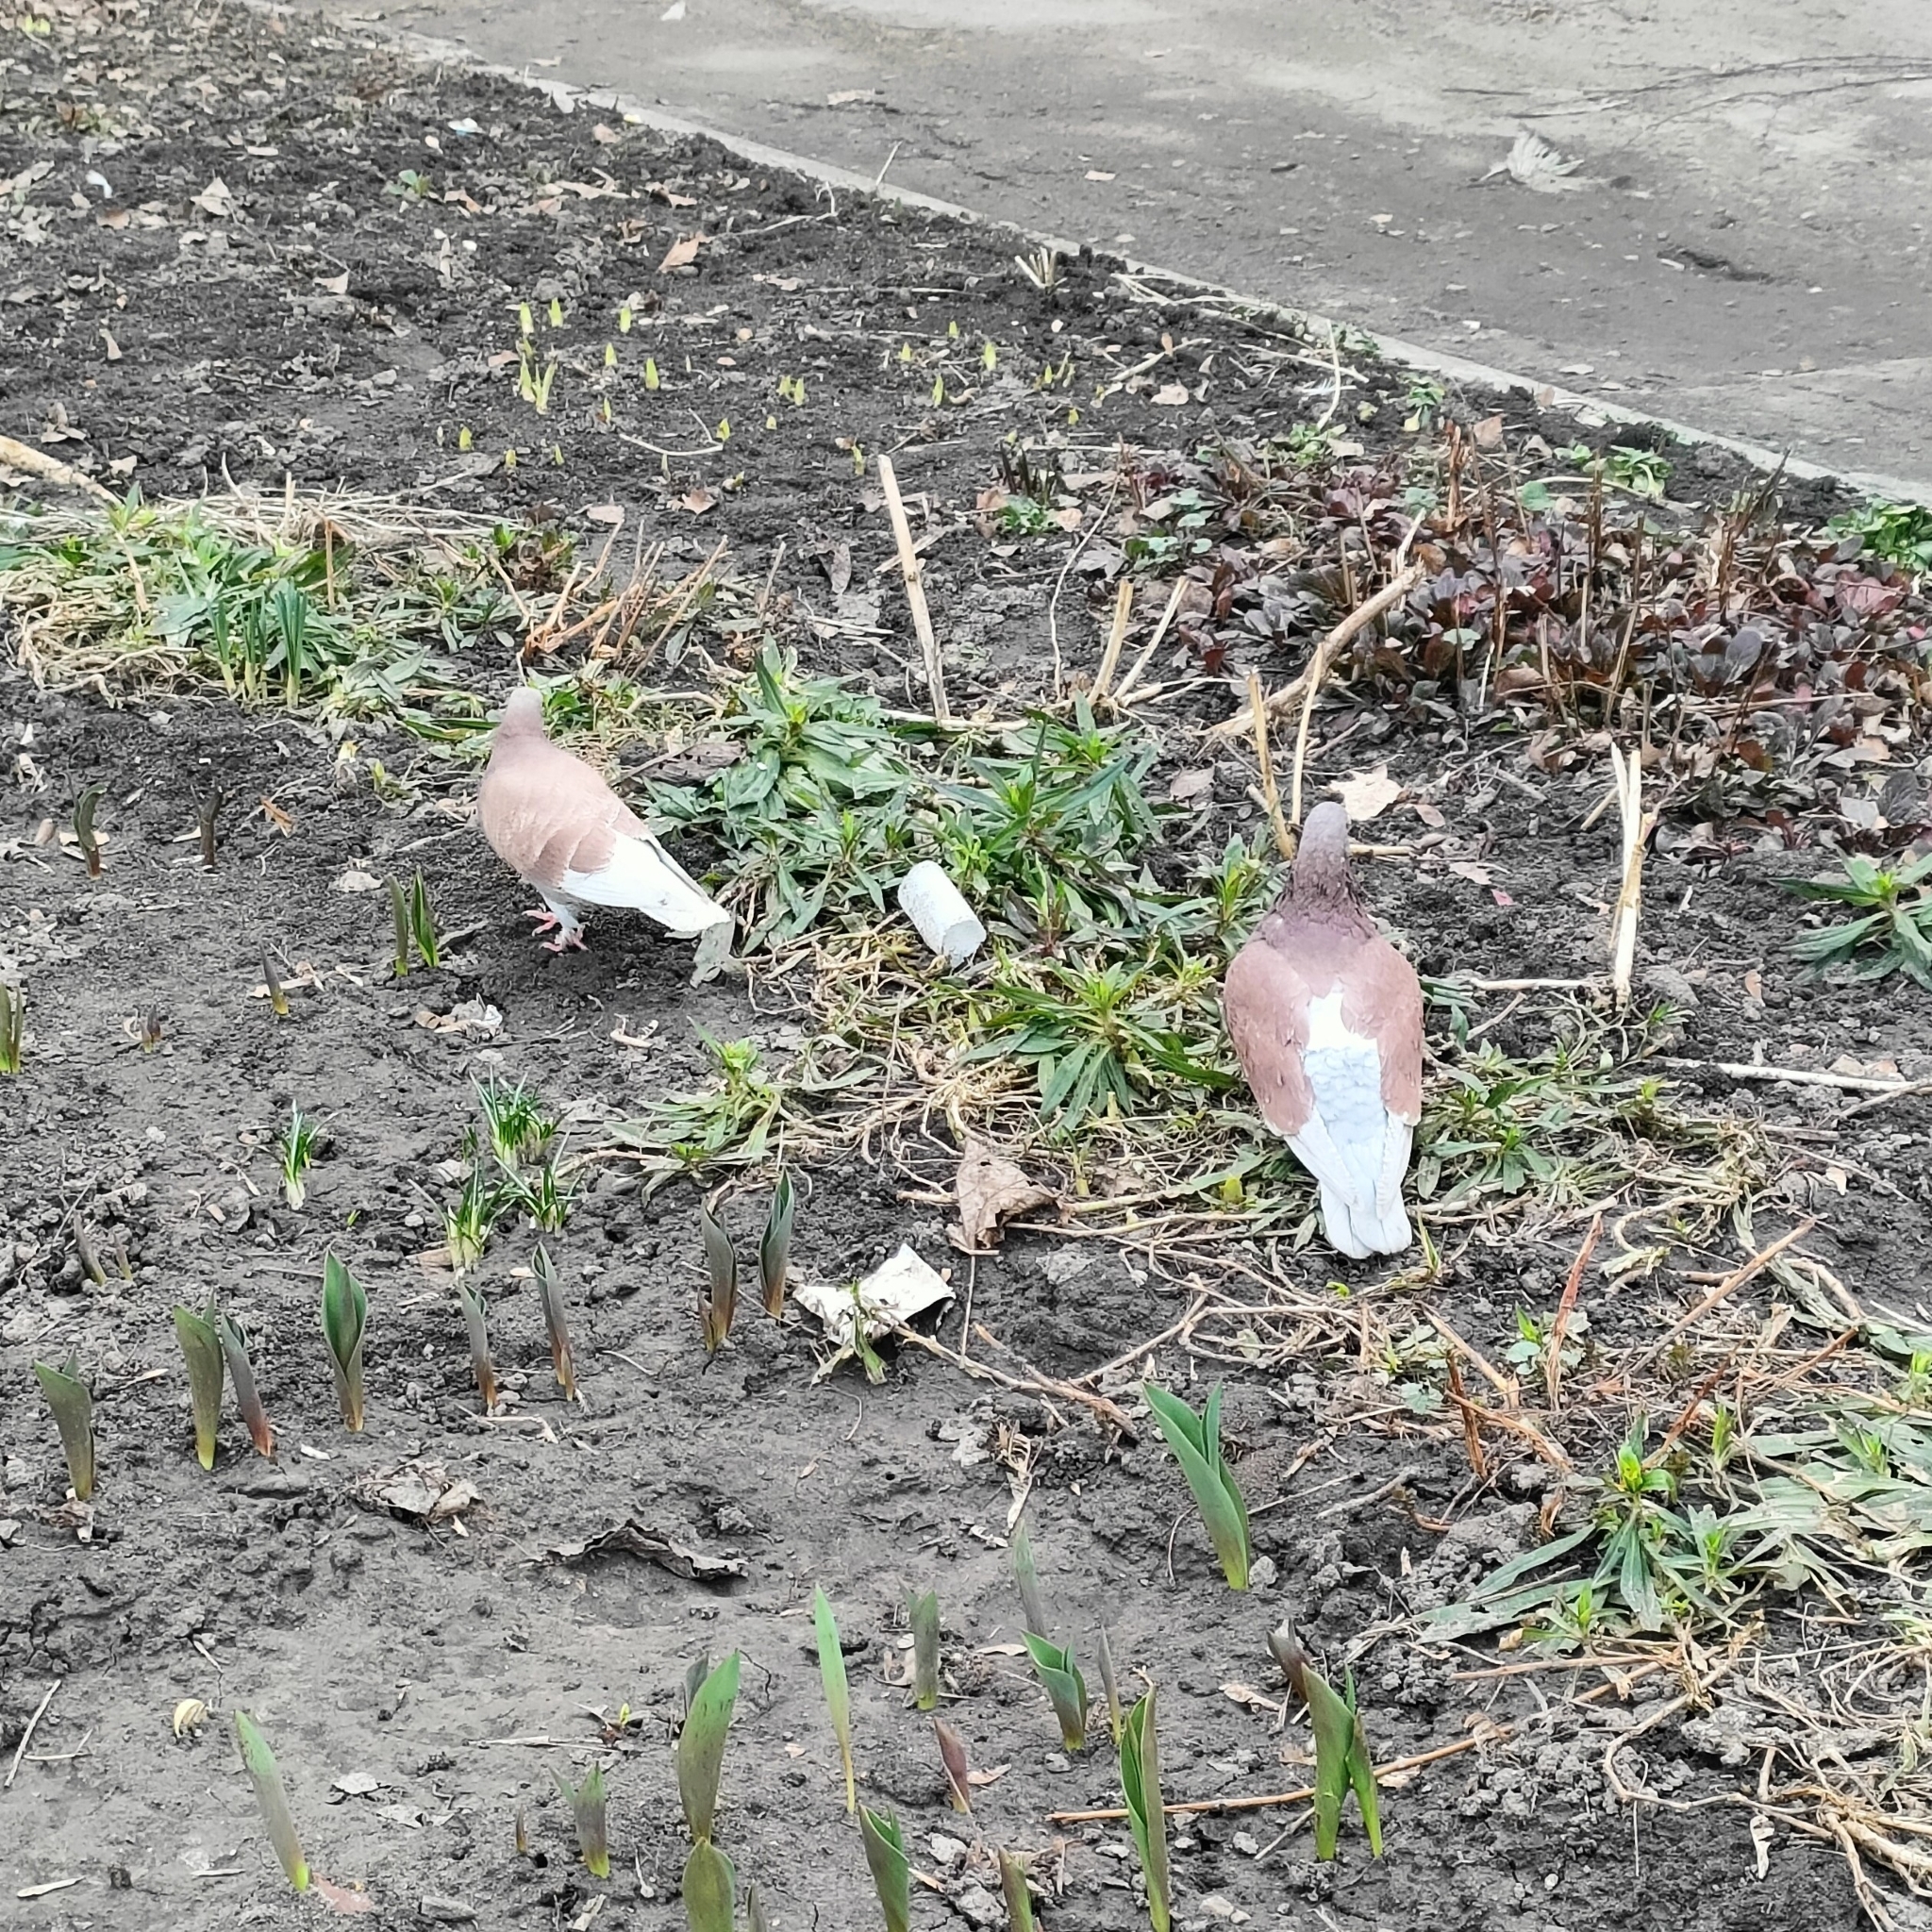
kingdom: Animalia
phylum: Chordata
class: Aves
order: Columbiformes
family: Columbidae
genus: Columba
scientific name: Columba livia
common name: Rock pigeon
